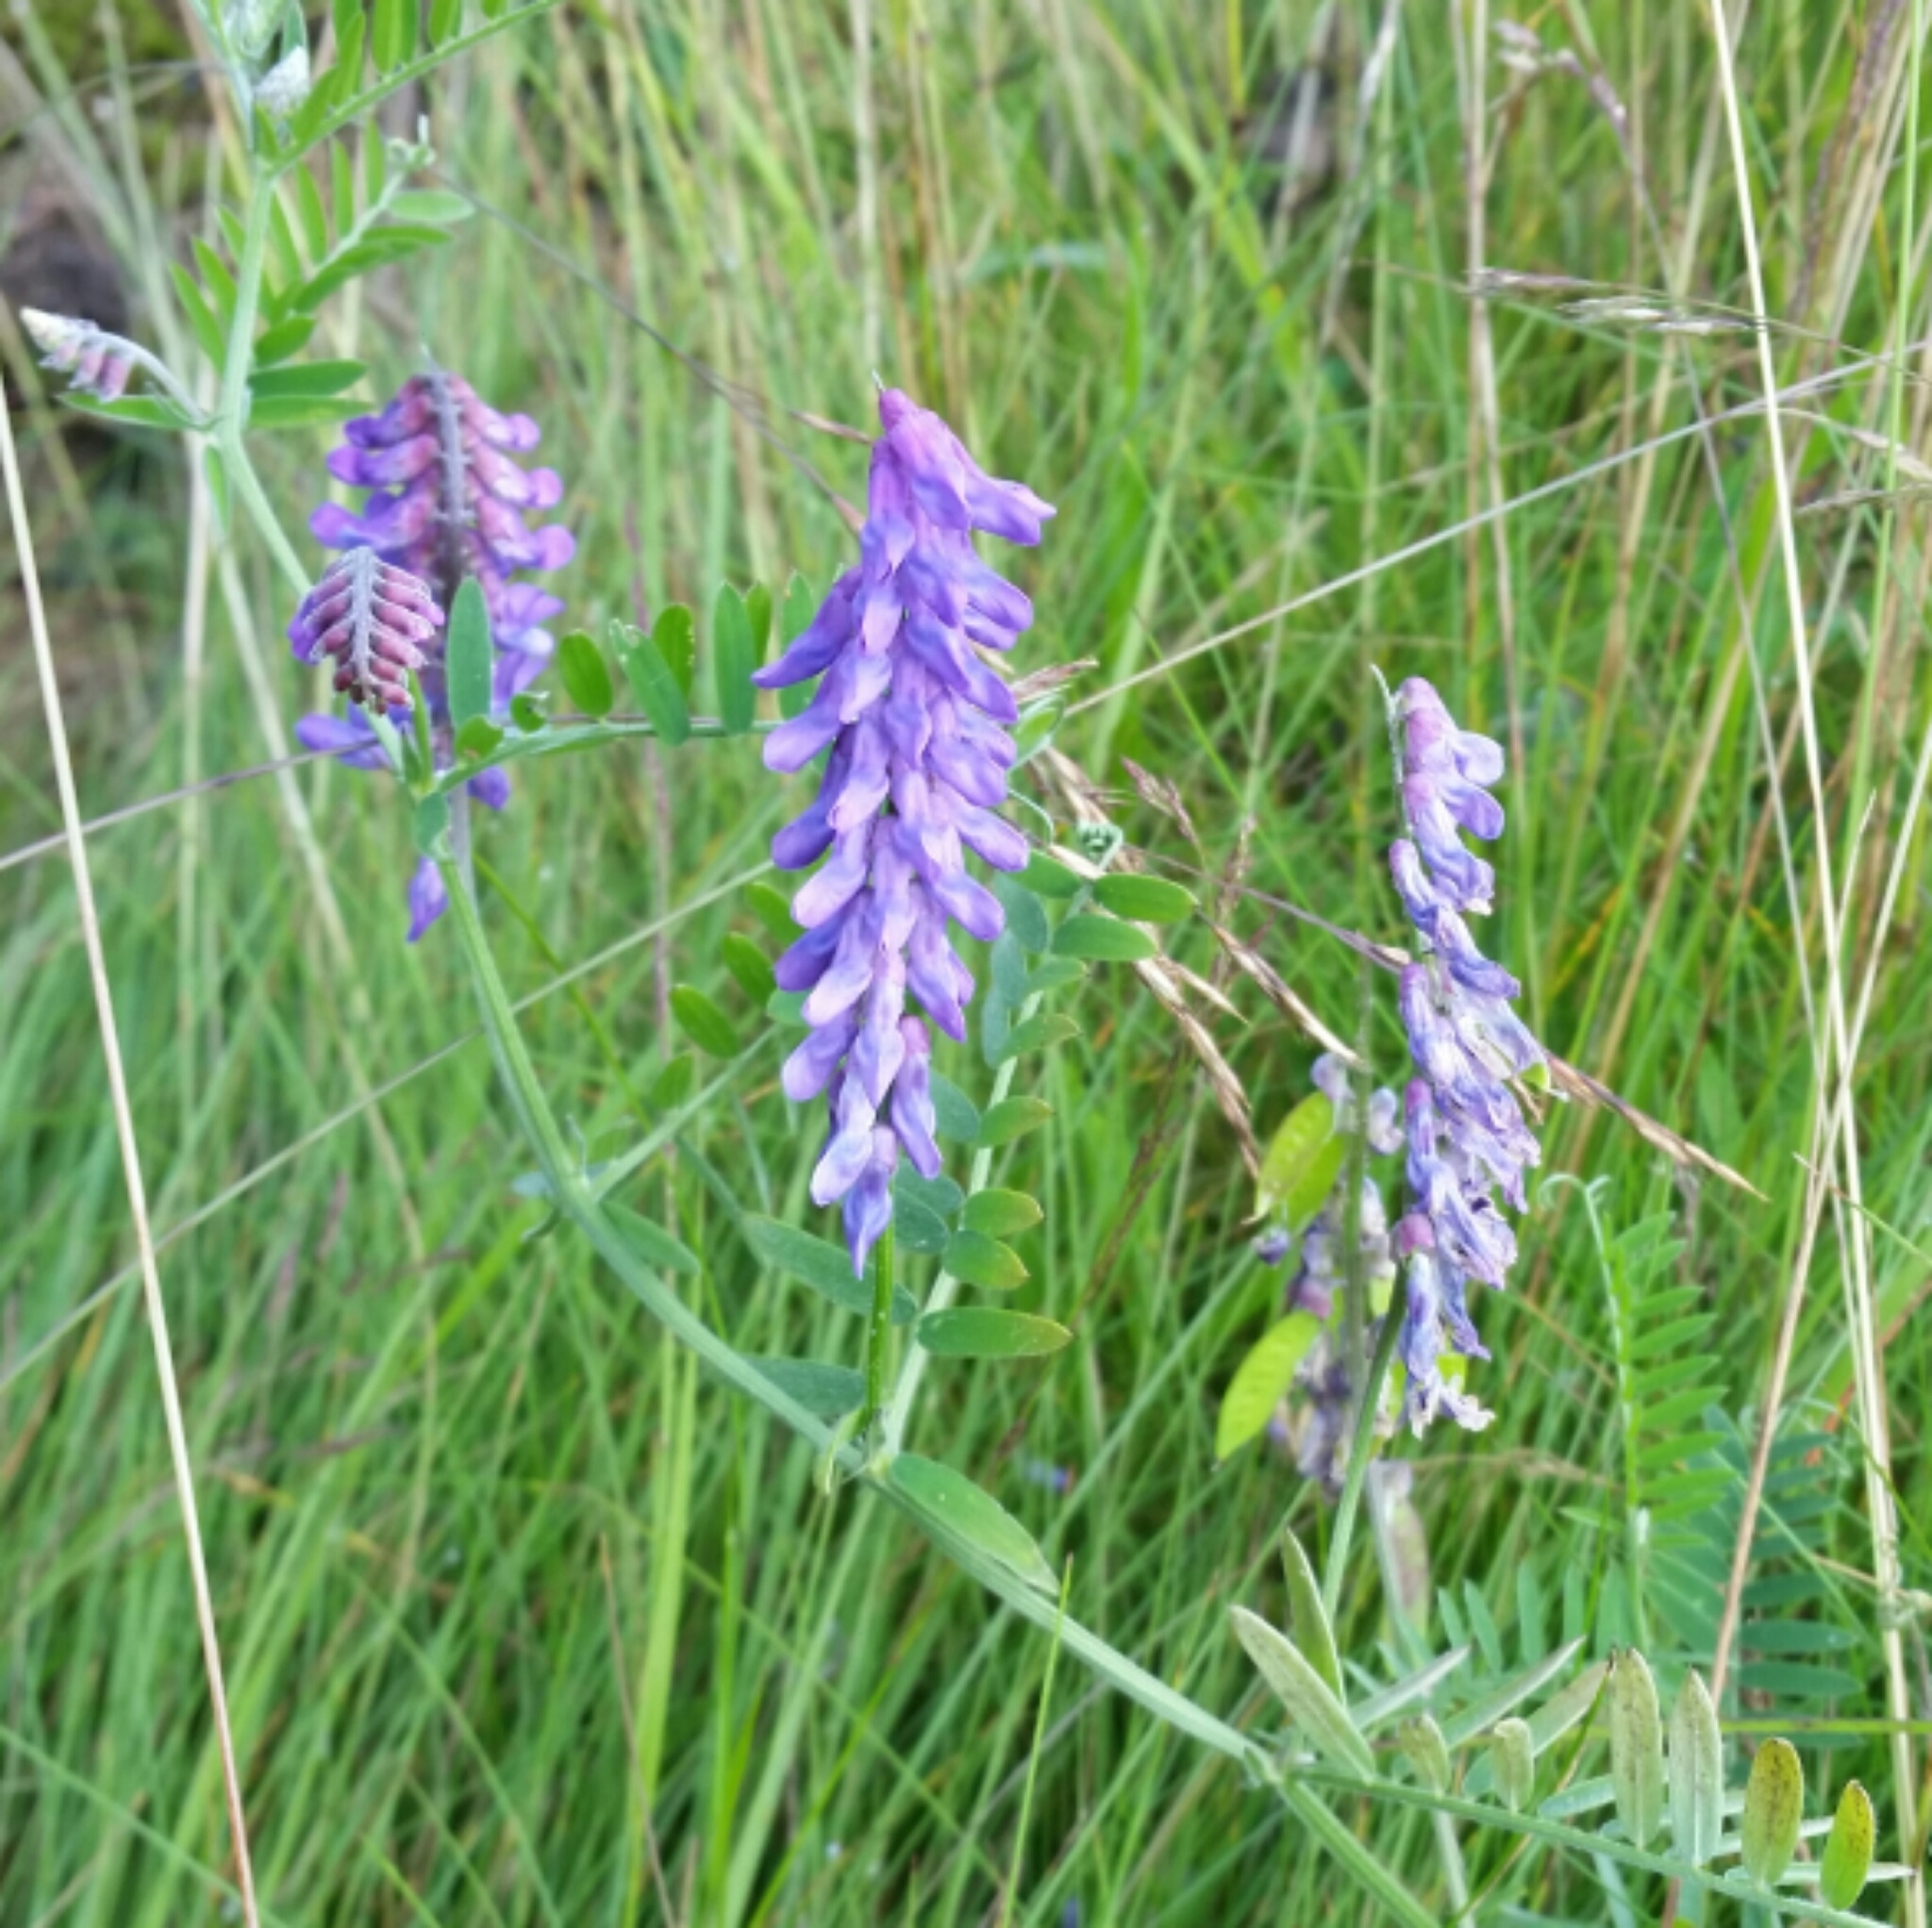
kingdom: Plantae
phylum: Tracheophyta
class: Magnoliopsida
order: Fabales
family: Fabaceae
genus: Vicia
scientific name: Vicia cracca
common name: Bird vetch
